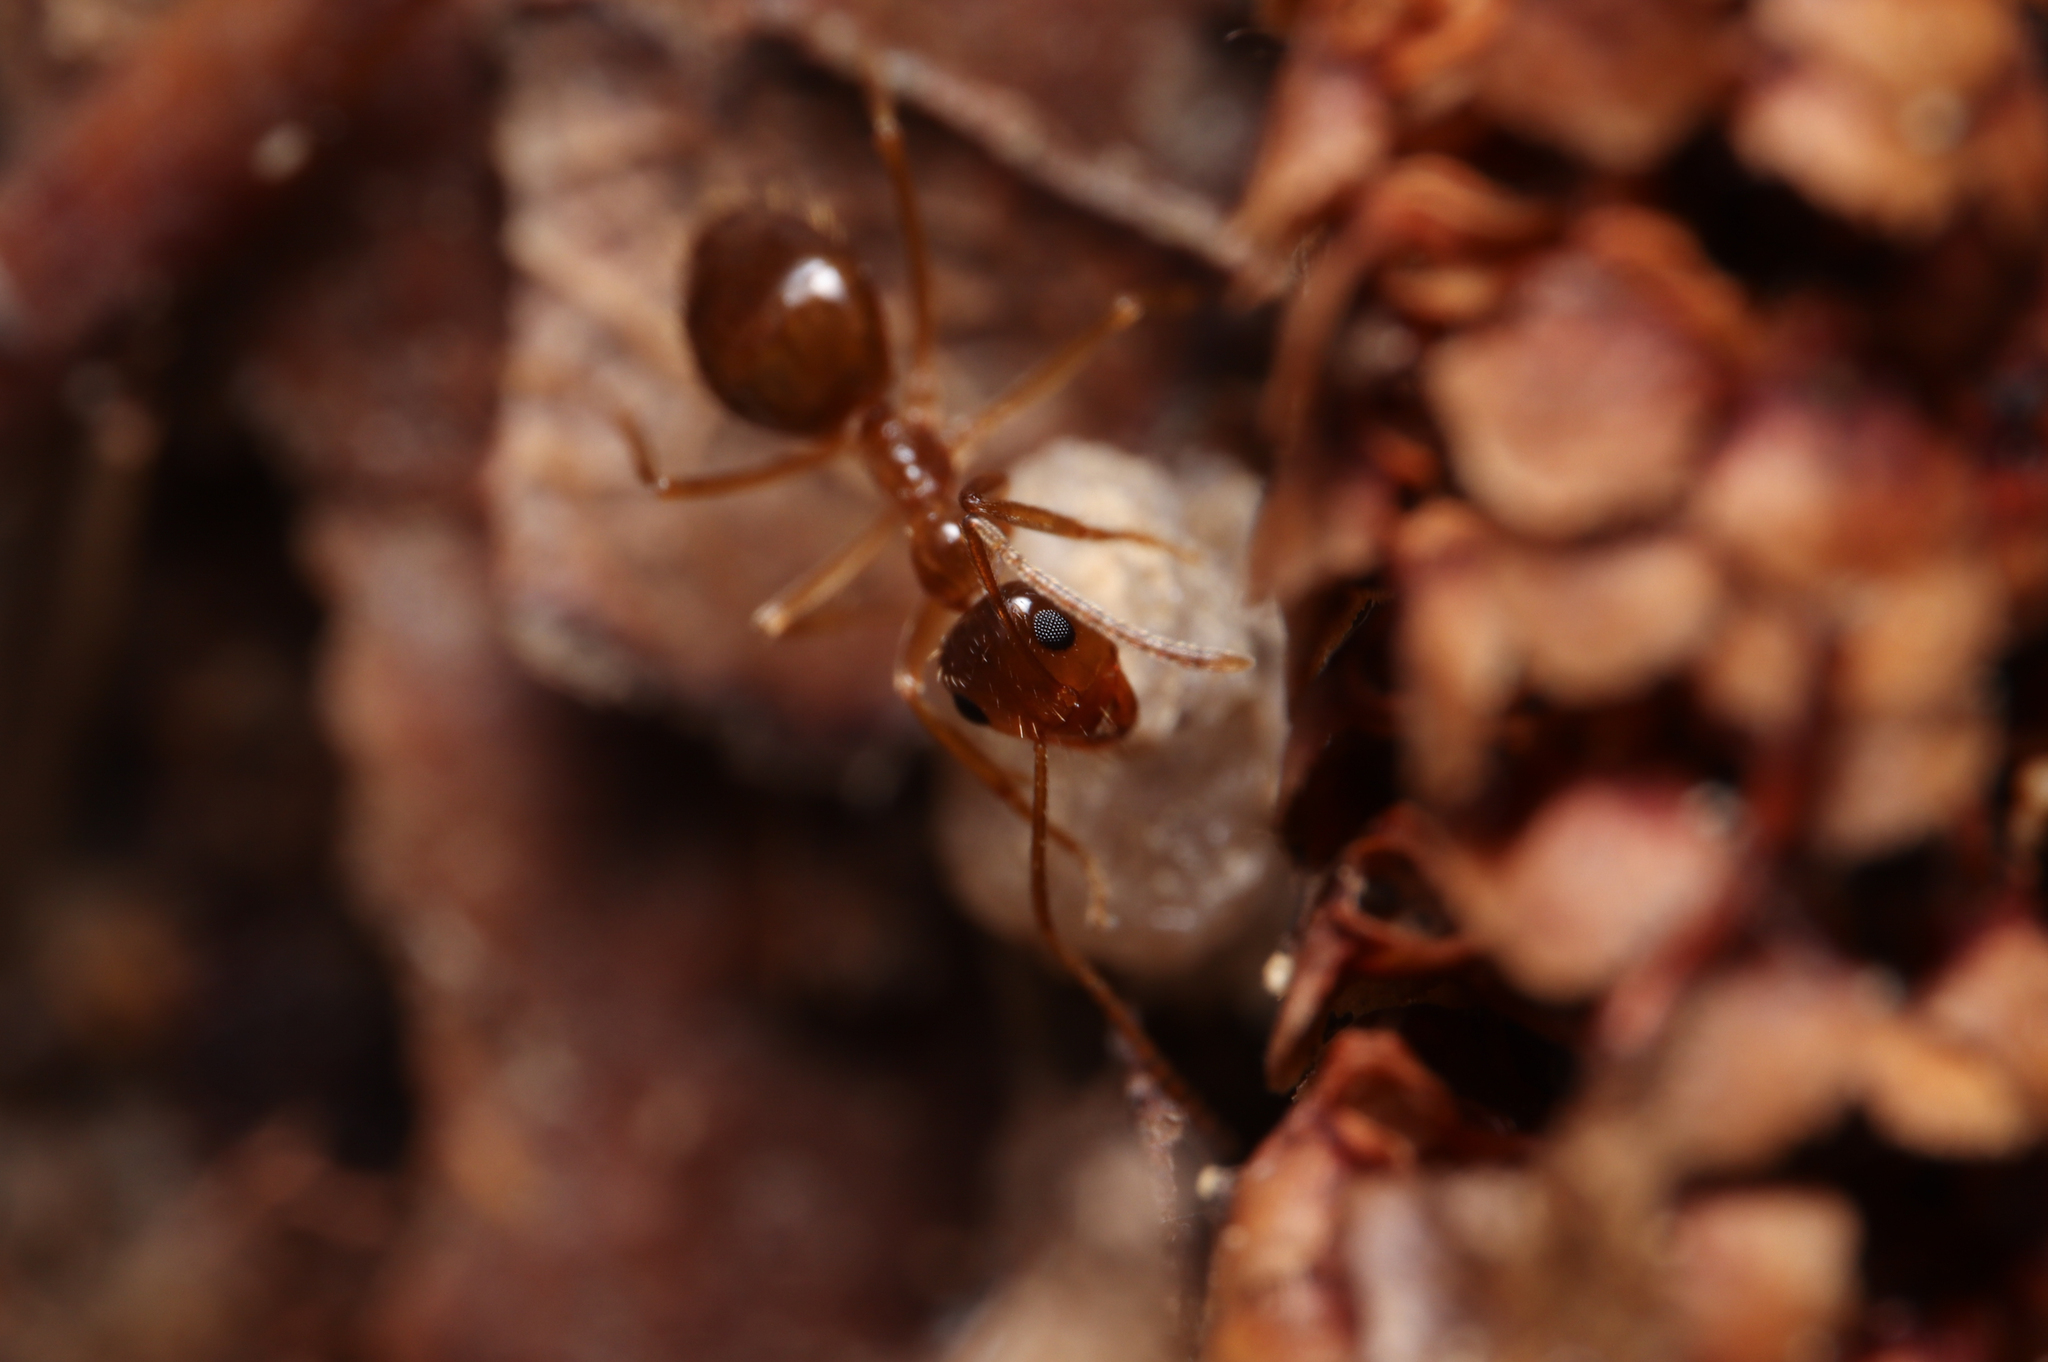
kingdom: Animalia
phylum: Arthropoda
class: Insecta
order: Hymenoptera
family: Formicidae
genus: Prenolepis
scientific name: Prenolepis imparis
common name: Small honey ant
